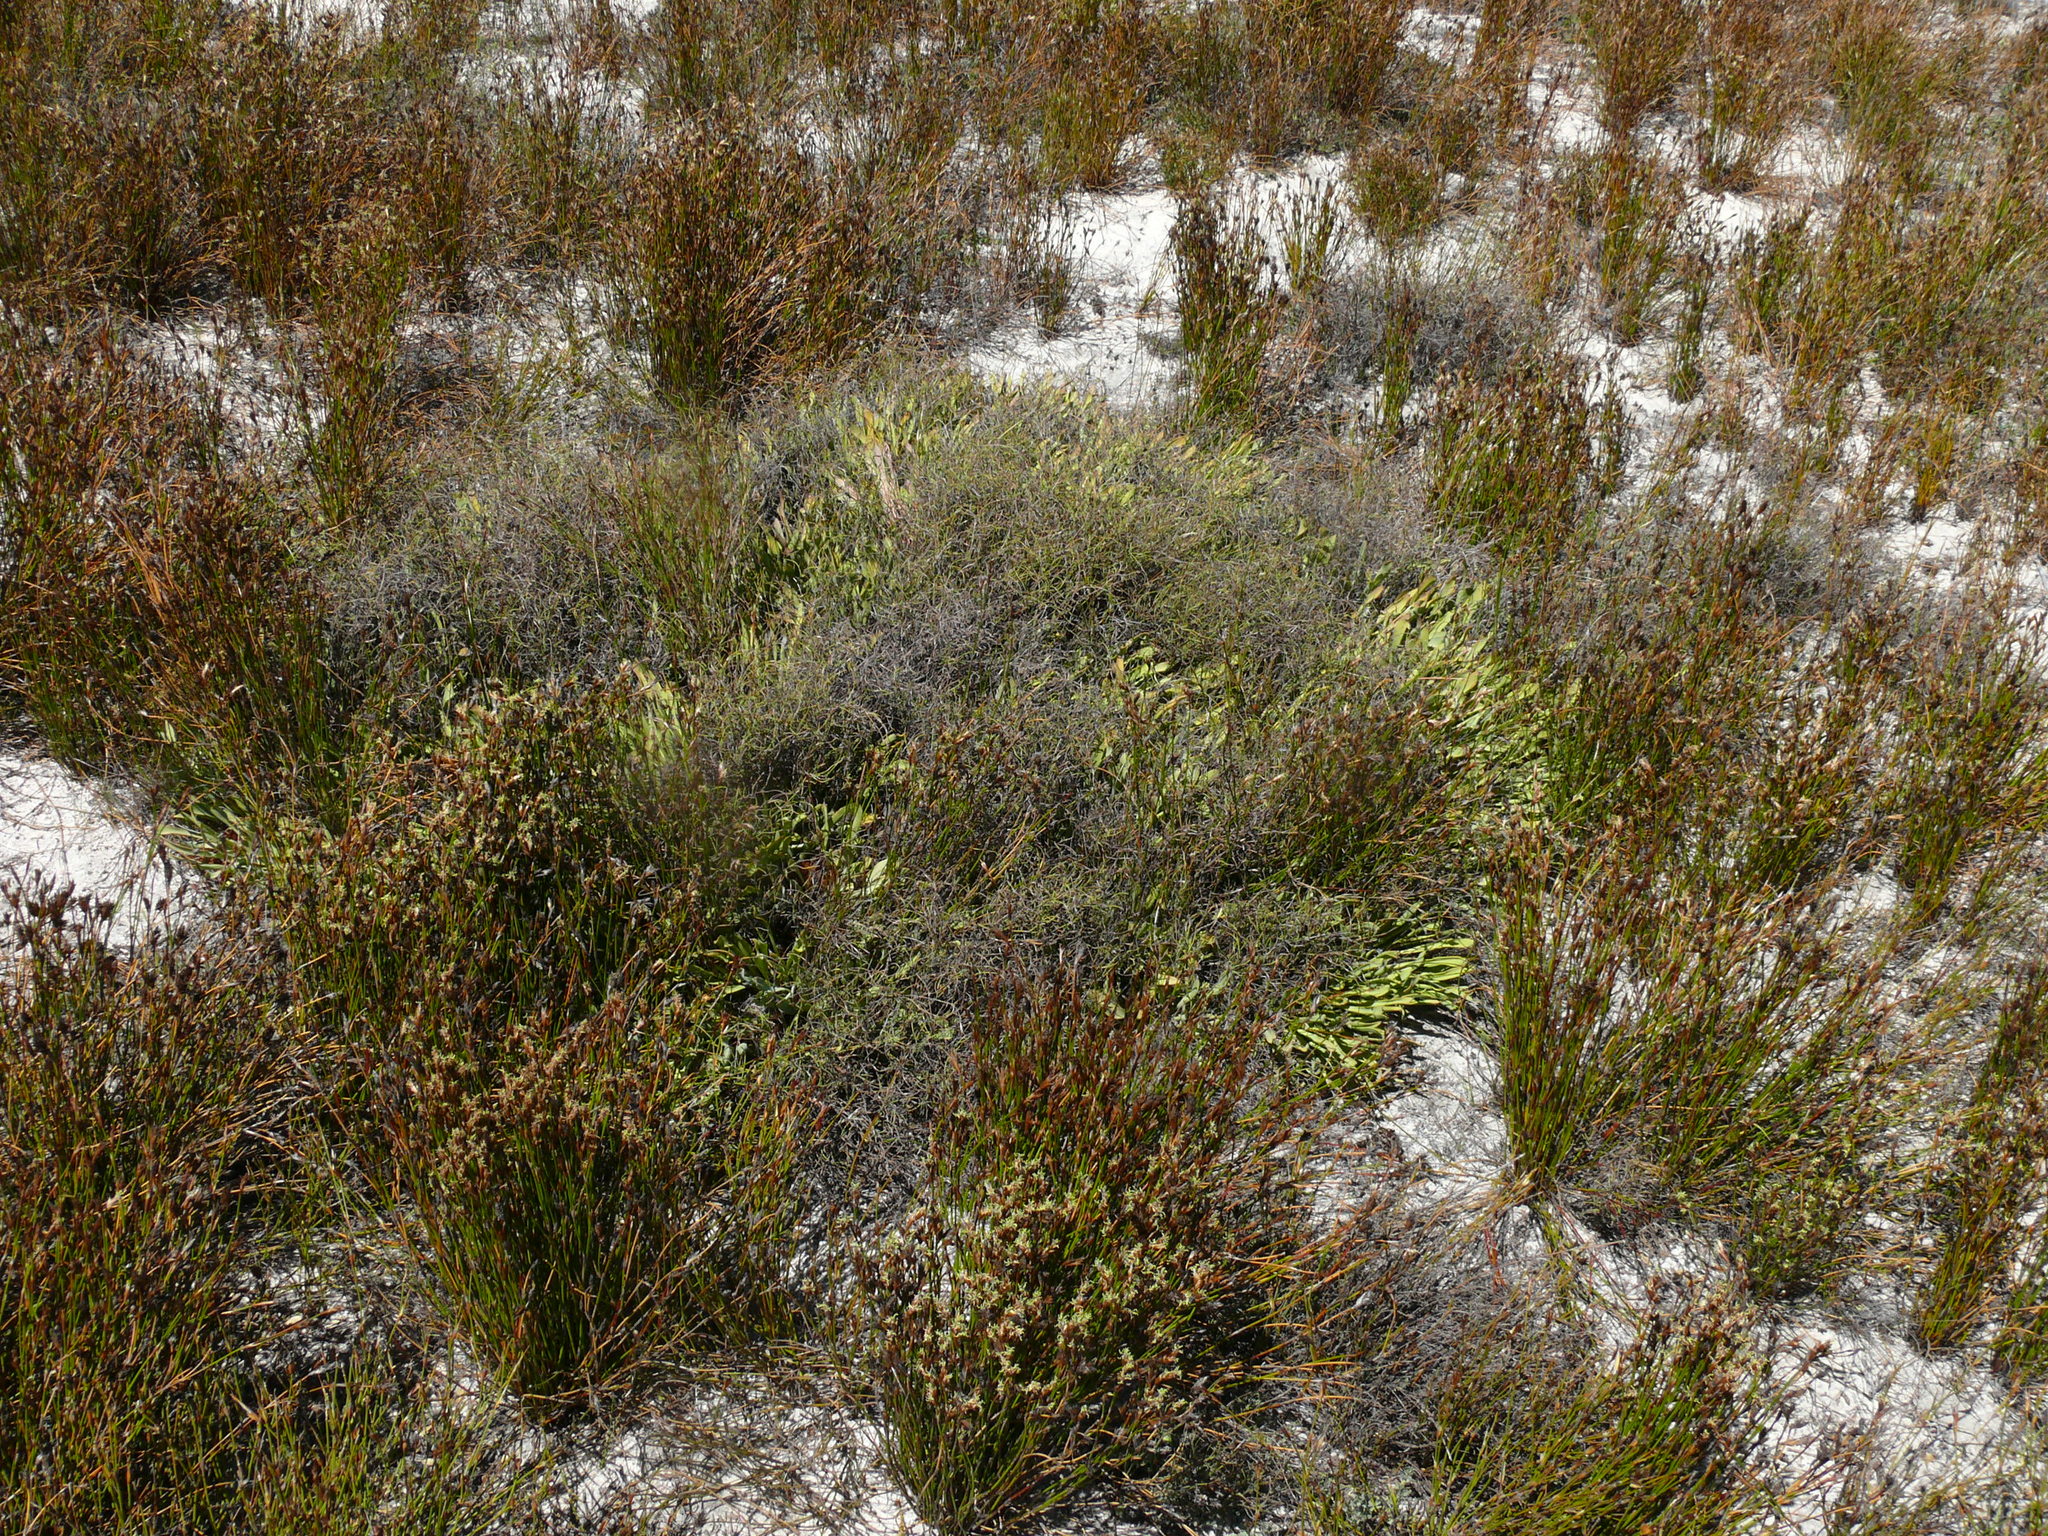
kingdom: Plantae
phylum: Tracheophyta
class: Magnoliopsida
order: Proteales
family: Proteaceae
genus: Protea
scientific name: Protea laevis
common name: Smooth-leaf sugarbush
